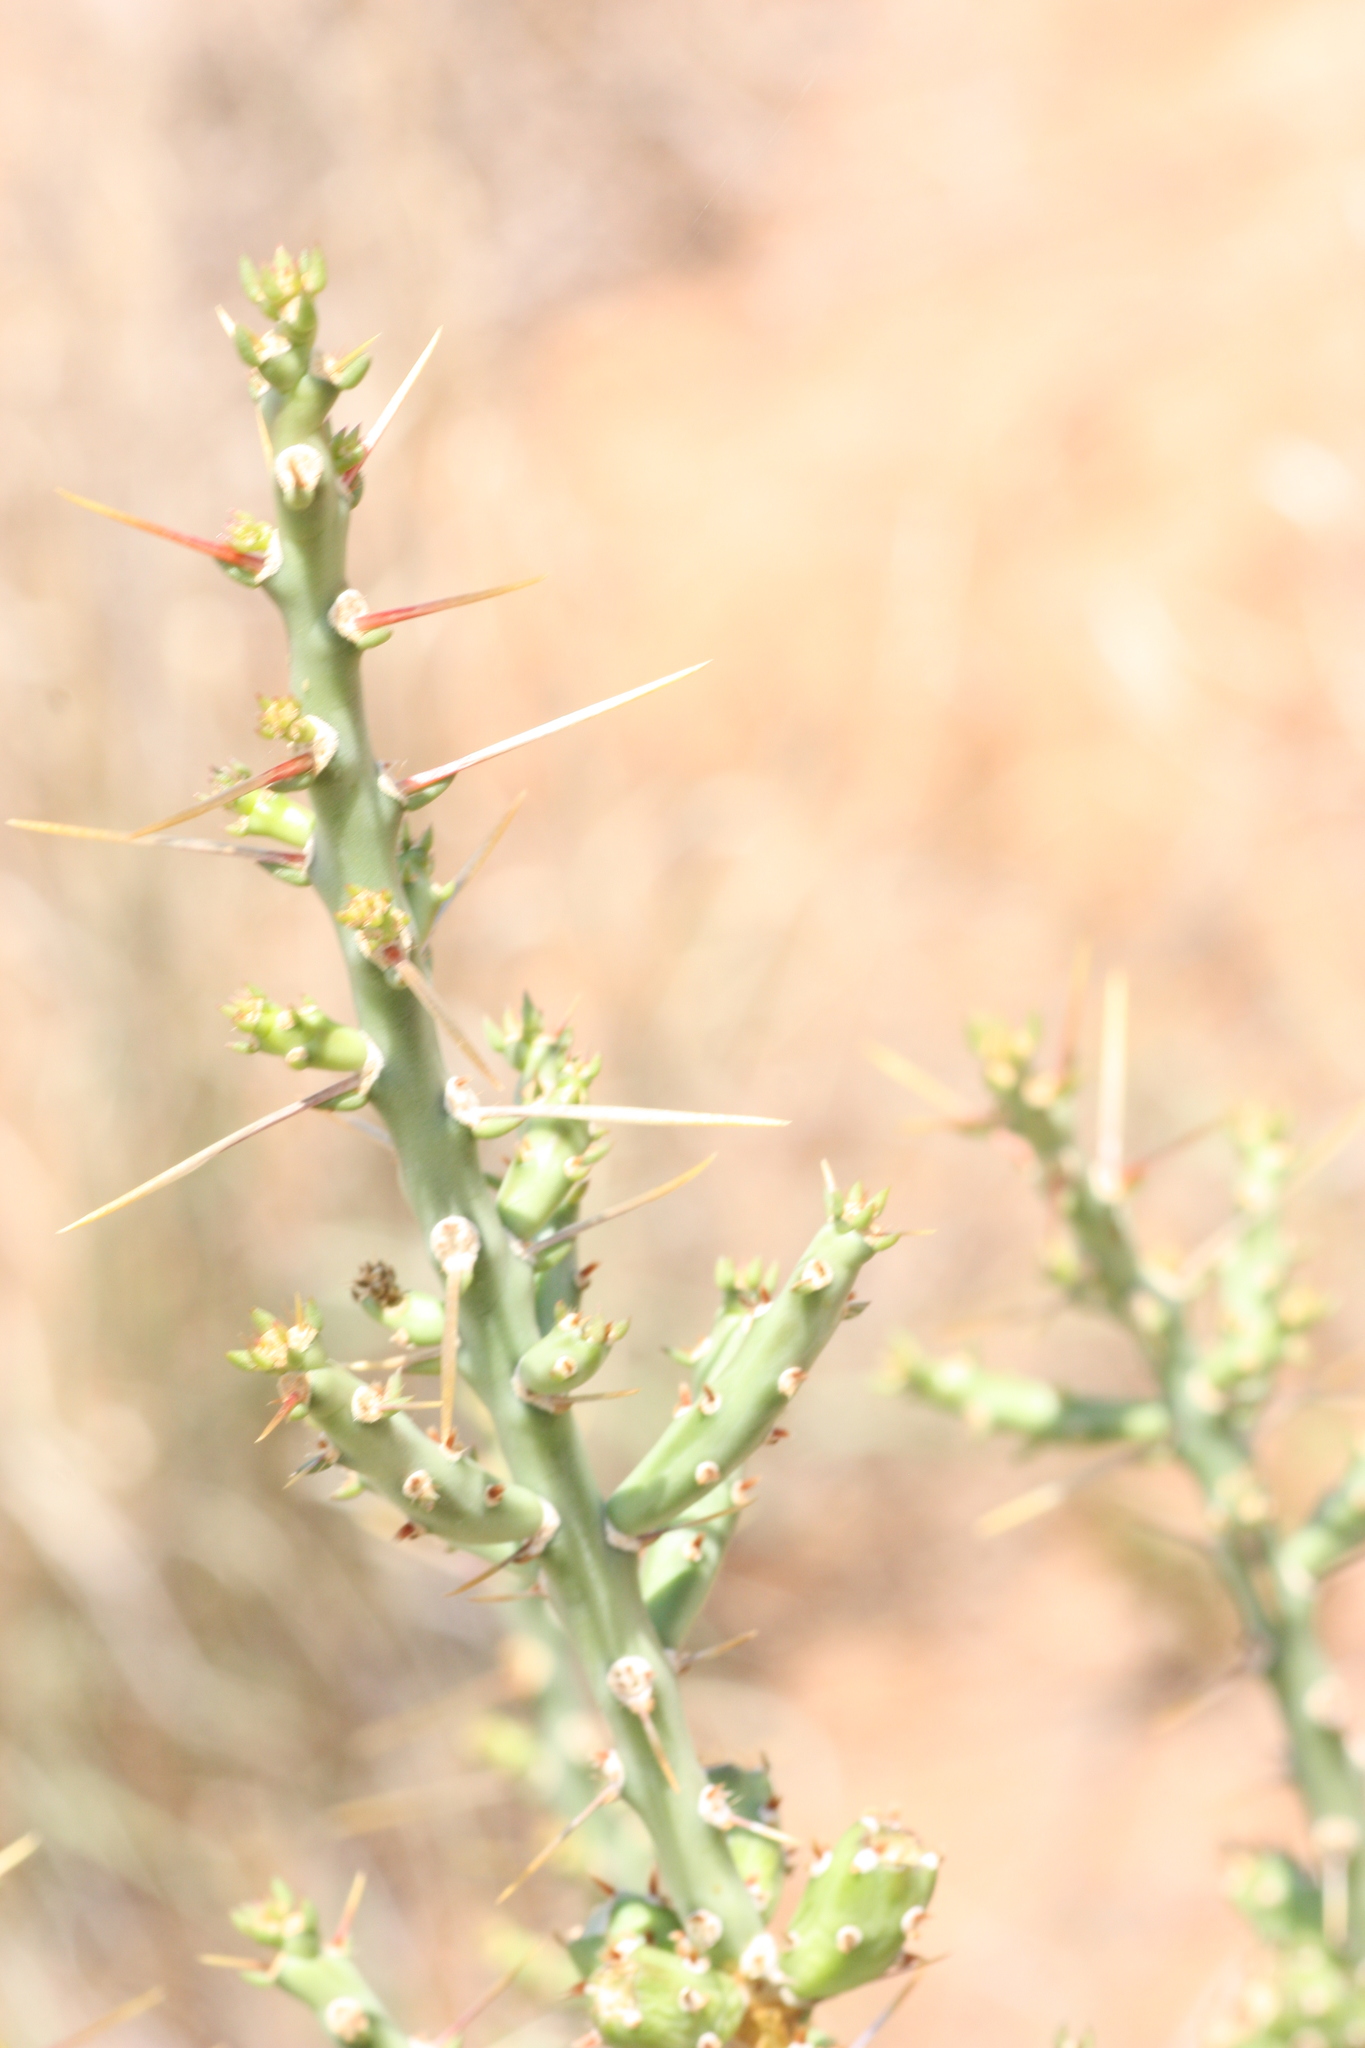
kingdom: Plantae
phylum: Tracheophyta
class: Magnoliopsida
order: Caryophyllales
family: Cactaceae
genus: Cylindropuntia
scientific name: Cylindropuntia leptocaulis
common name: Christmas cactus
